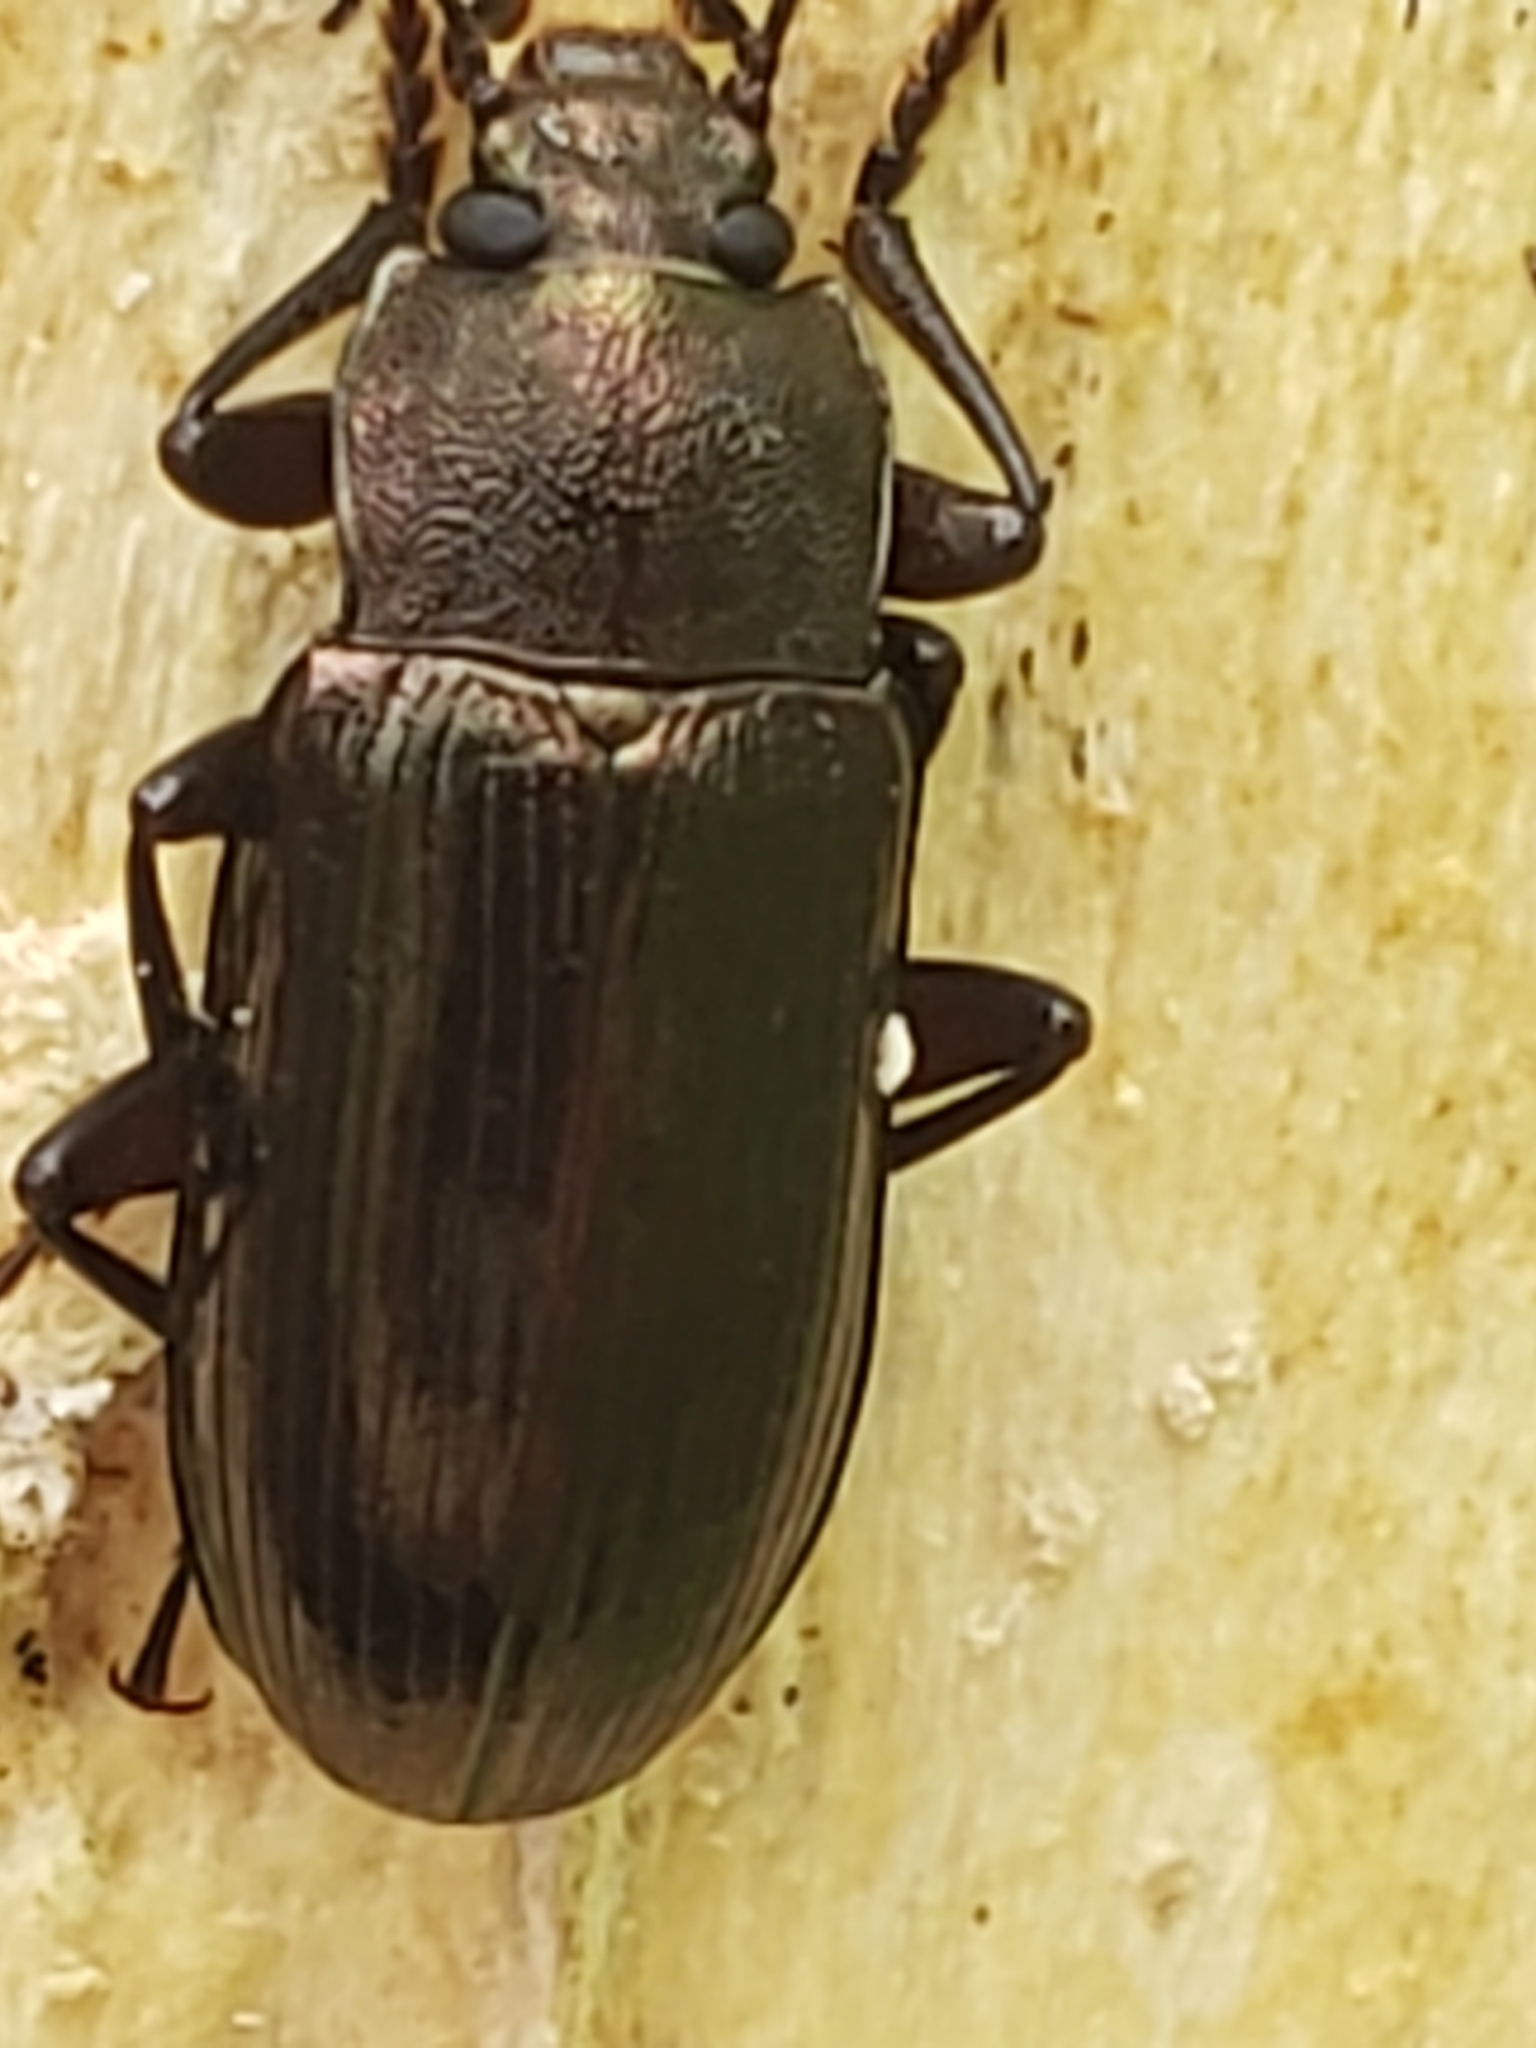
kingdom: Animalia
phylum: Arthropoda
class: Insecta
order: Coleoptera
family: Tenebrionidae
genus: Tarpela
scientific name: Tarpela undulata
